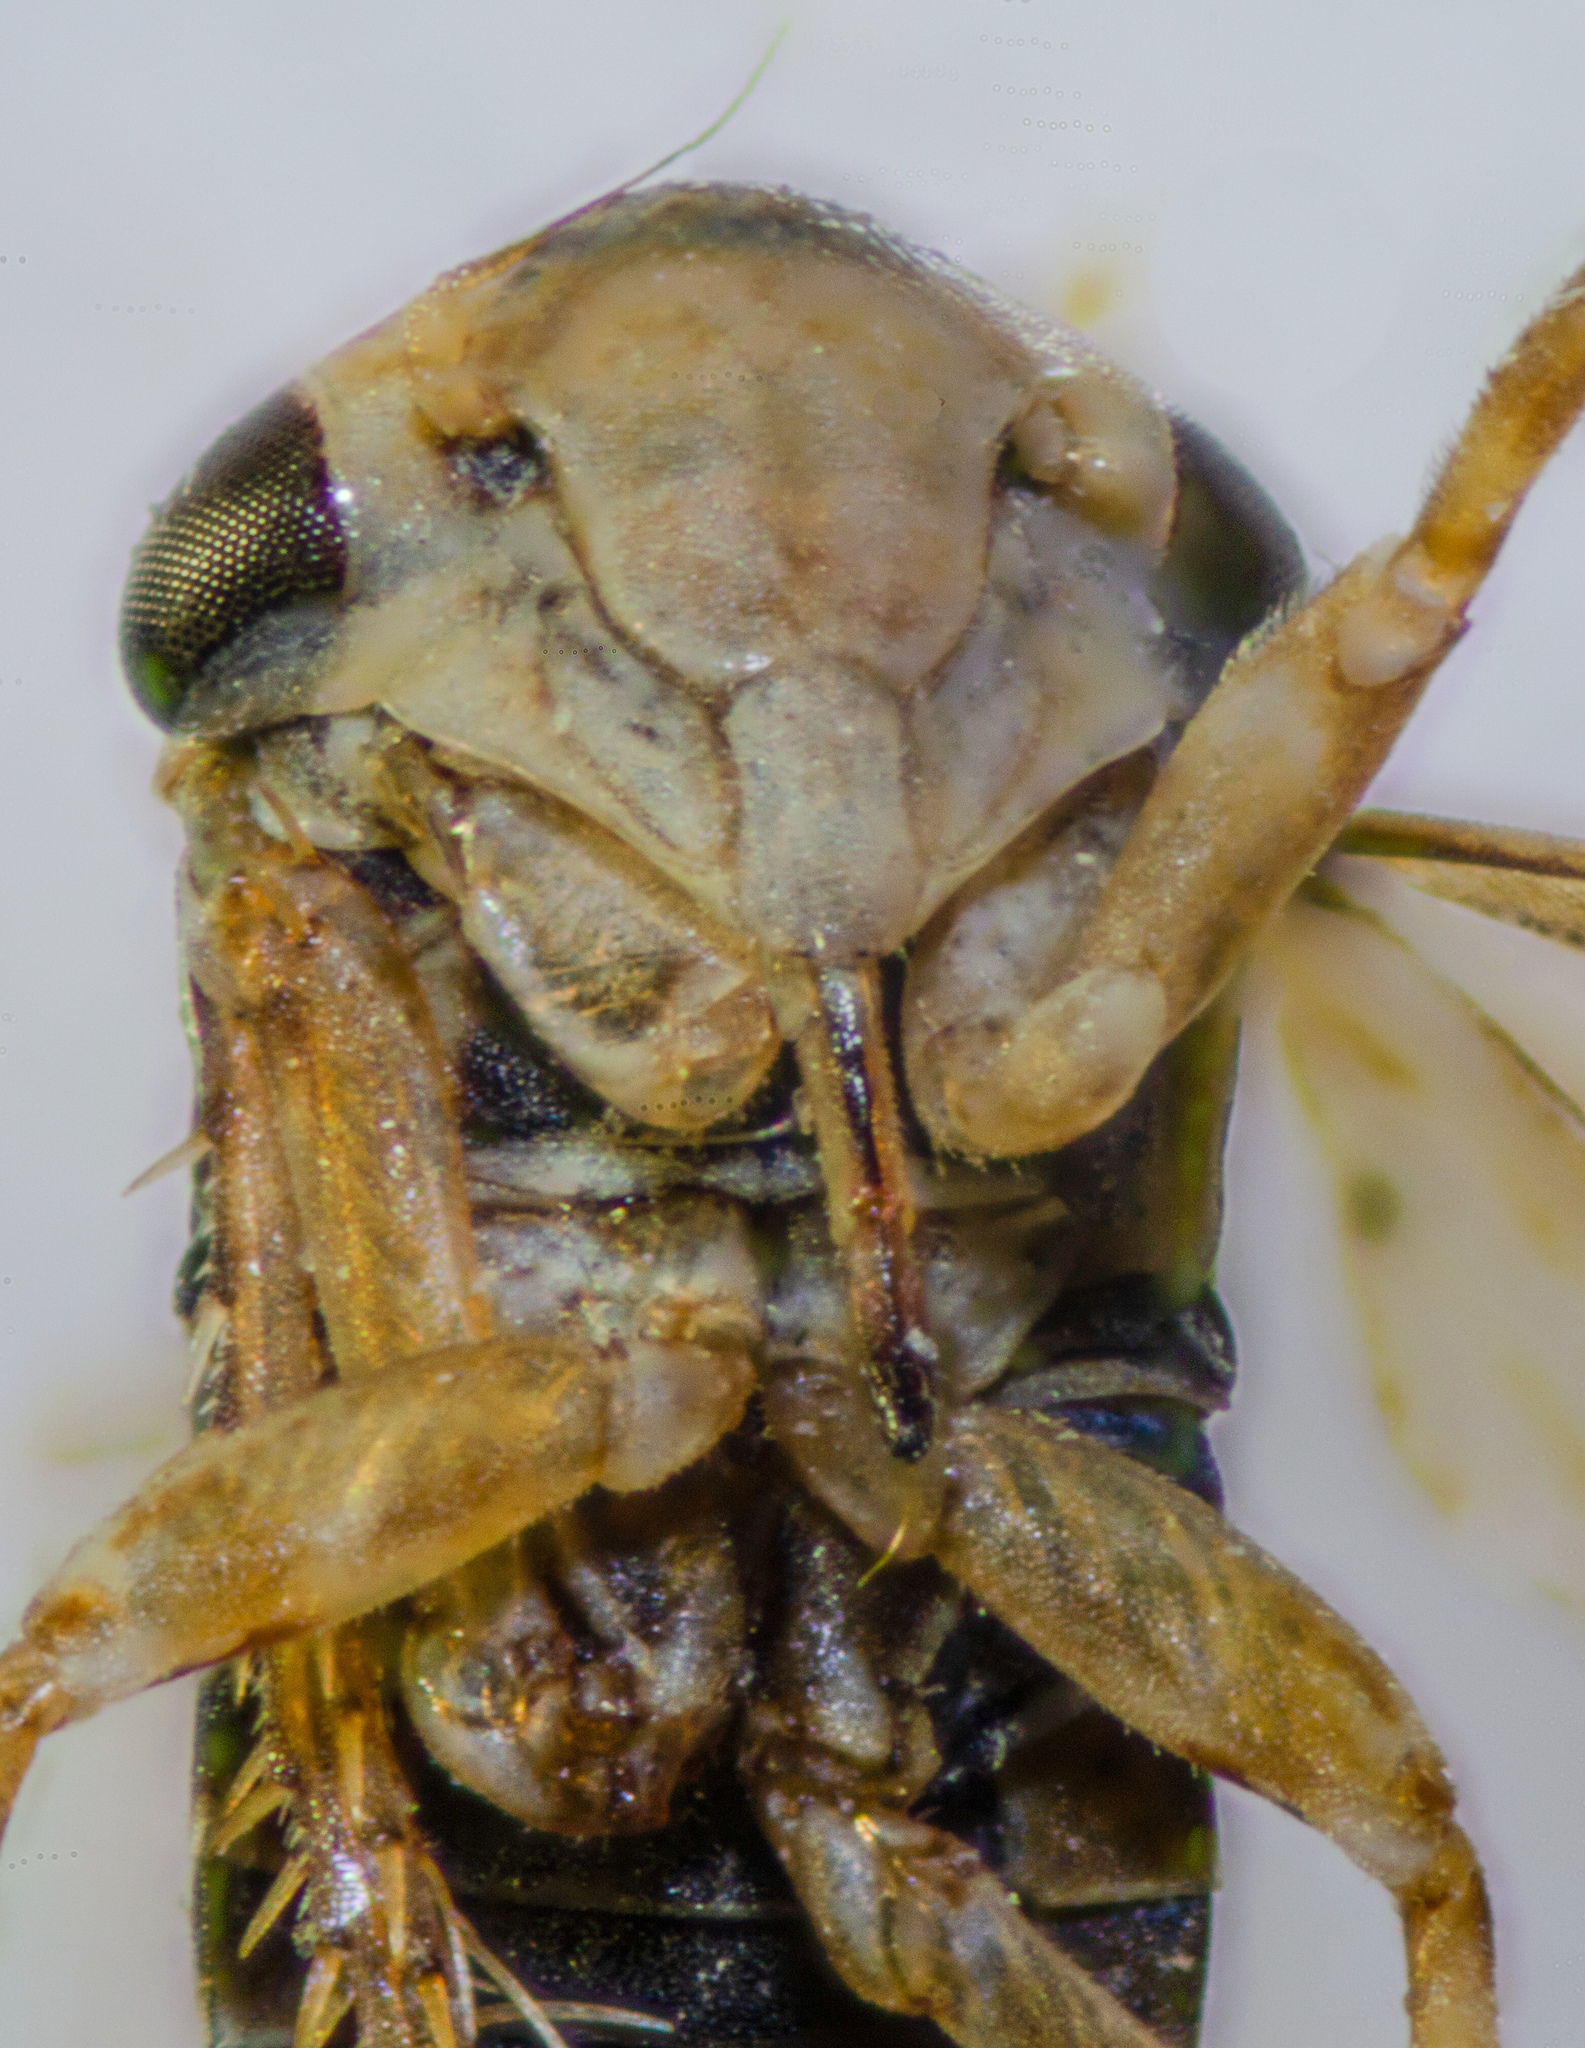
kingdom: Animalia
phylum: Arthropoda
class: Insecta
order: Hemiptera
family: Cicadellidae
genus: Aceratagallia
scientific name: Aceratagallia californica
